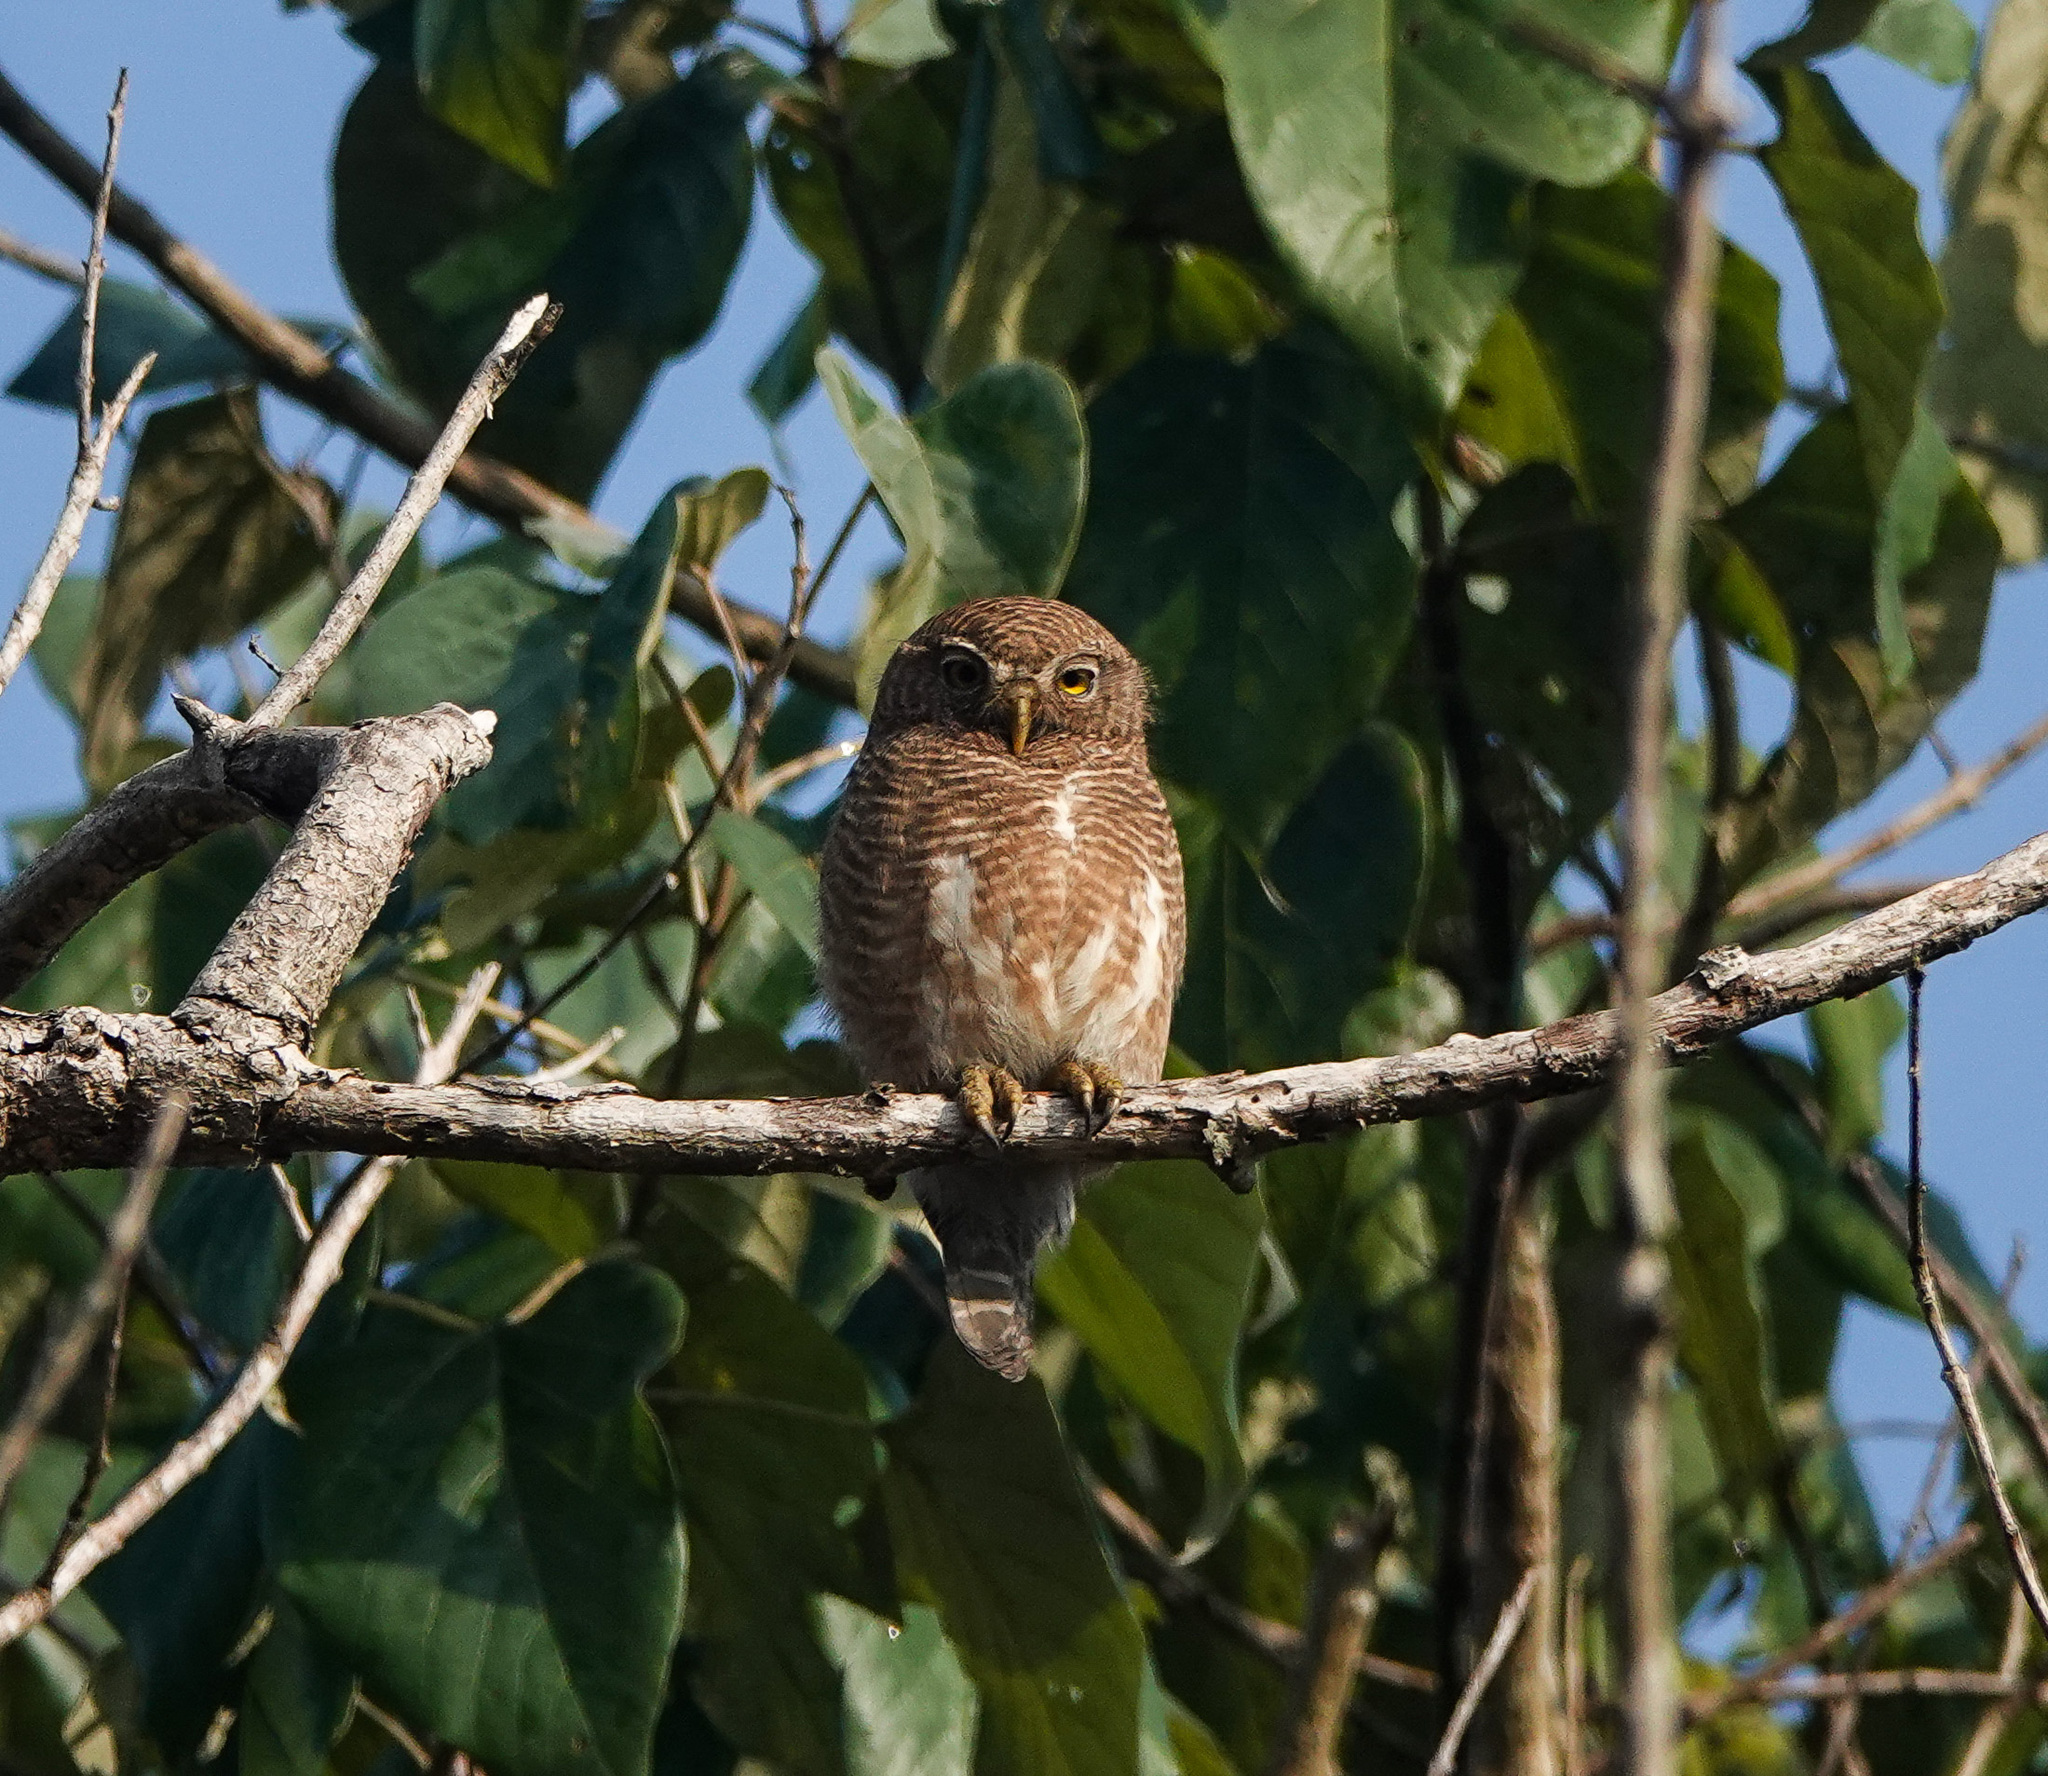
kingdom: Animalia
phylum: Chordata
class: Aves
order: Strigiformes
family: Strigidae
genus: Glaucidium
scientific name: Glaucidium cuculoides
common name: Asian barred owlet
